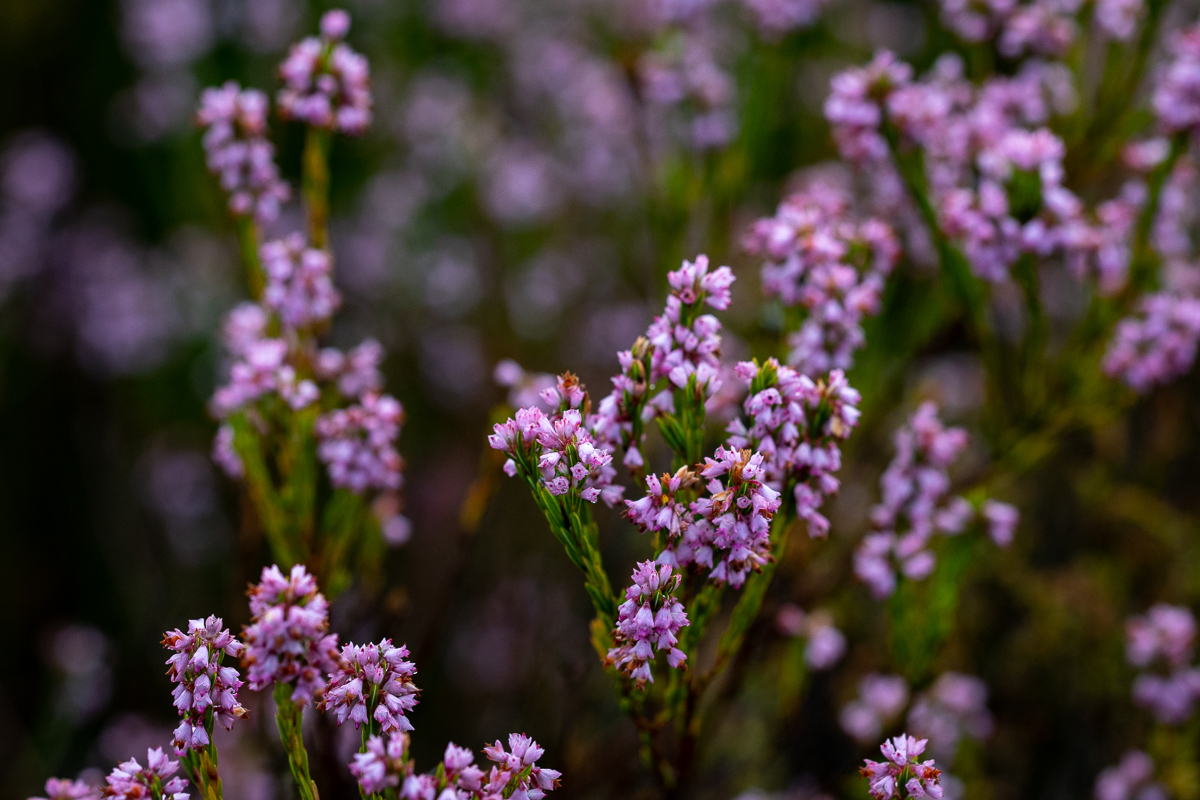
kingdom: Plantae
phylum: Tracheophyta
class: Magnoliopsida
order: Ericales
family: Ericaceae
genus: Erica
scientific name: Erica corifolia
